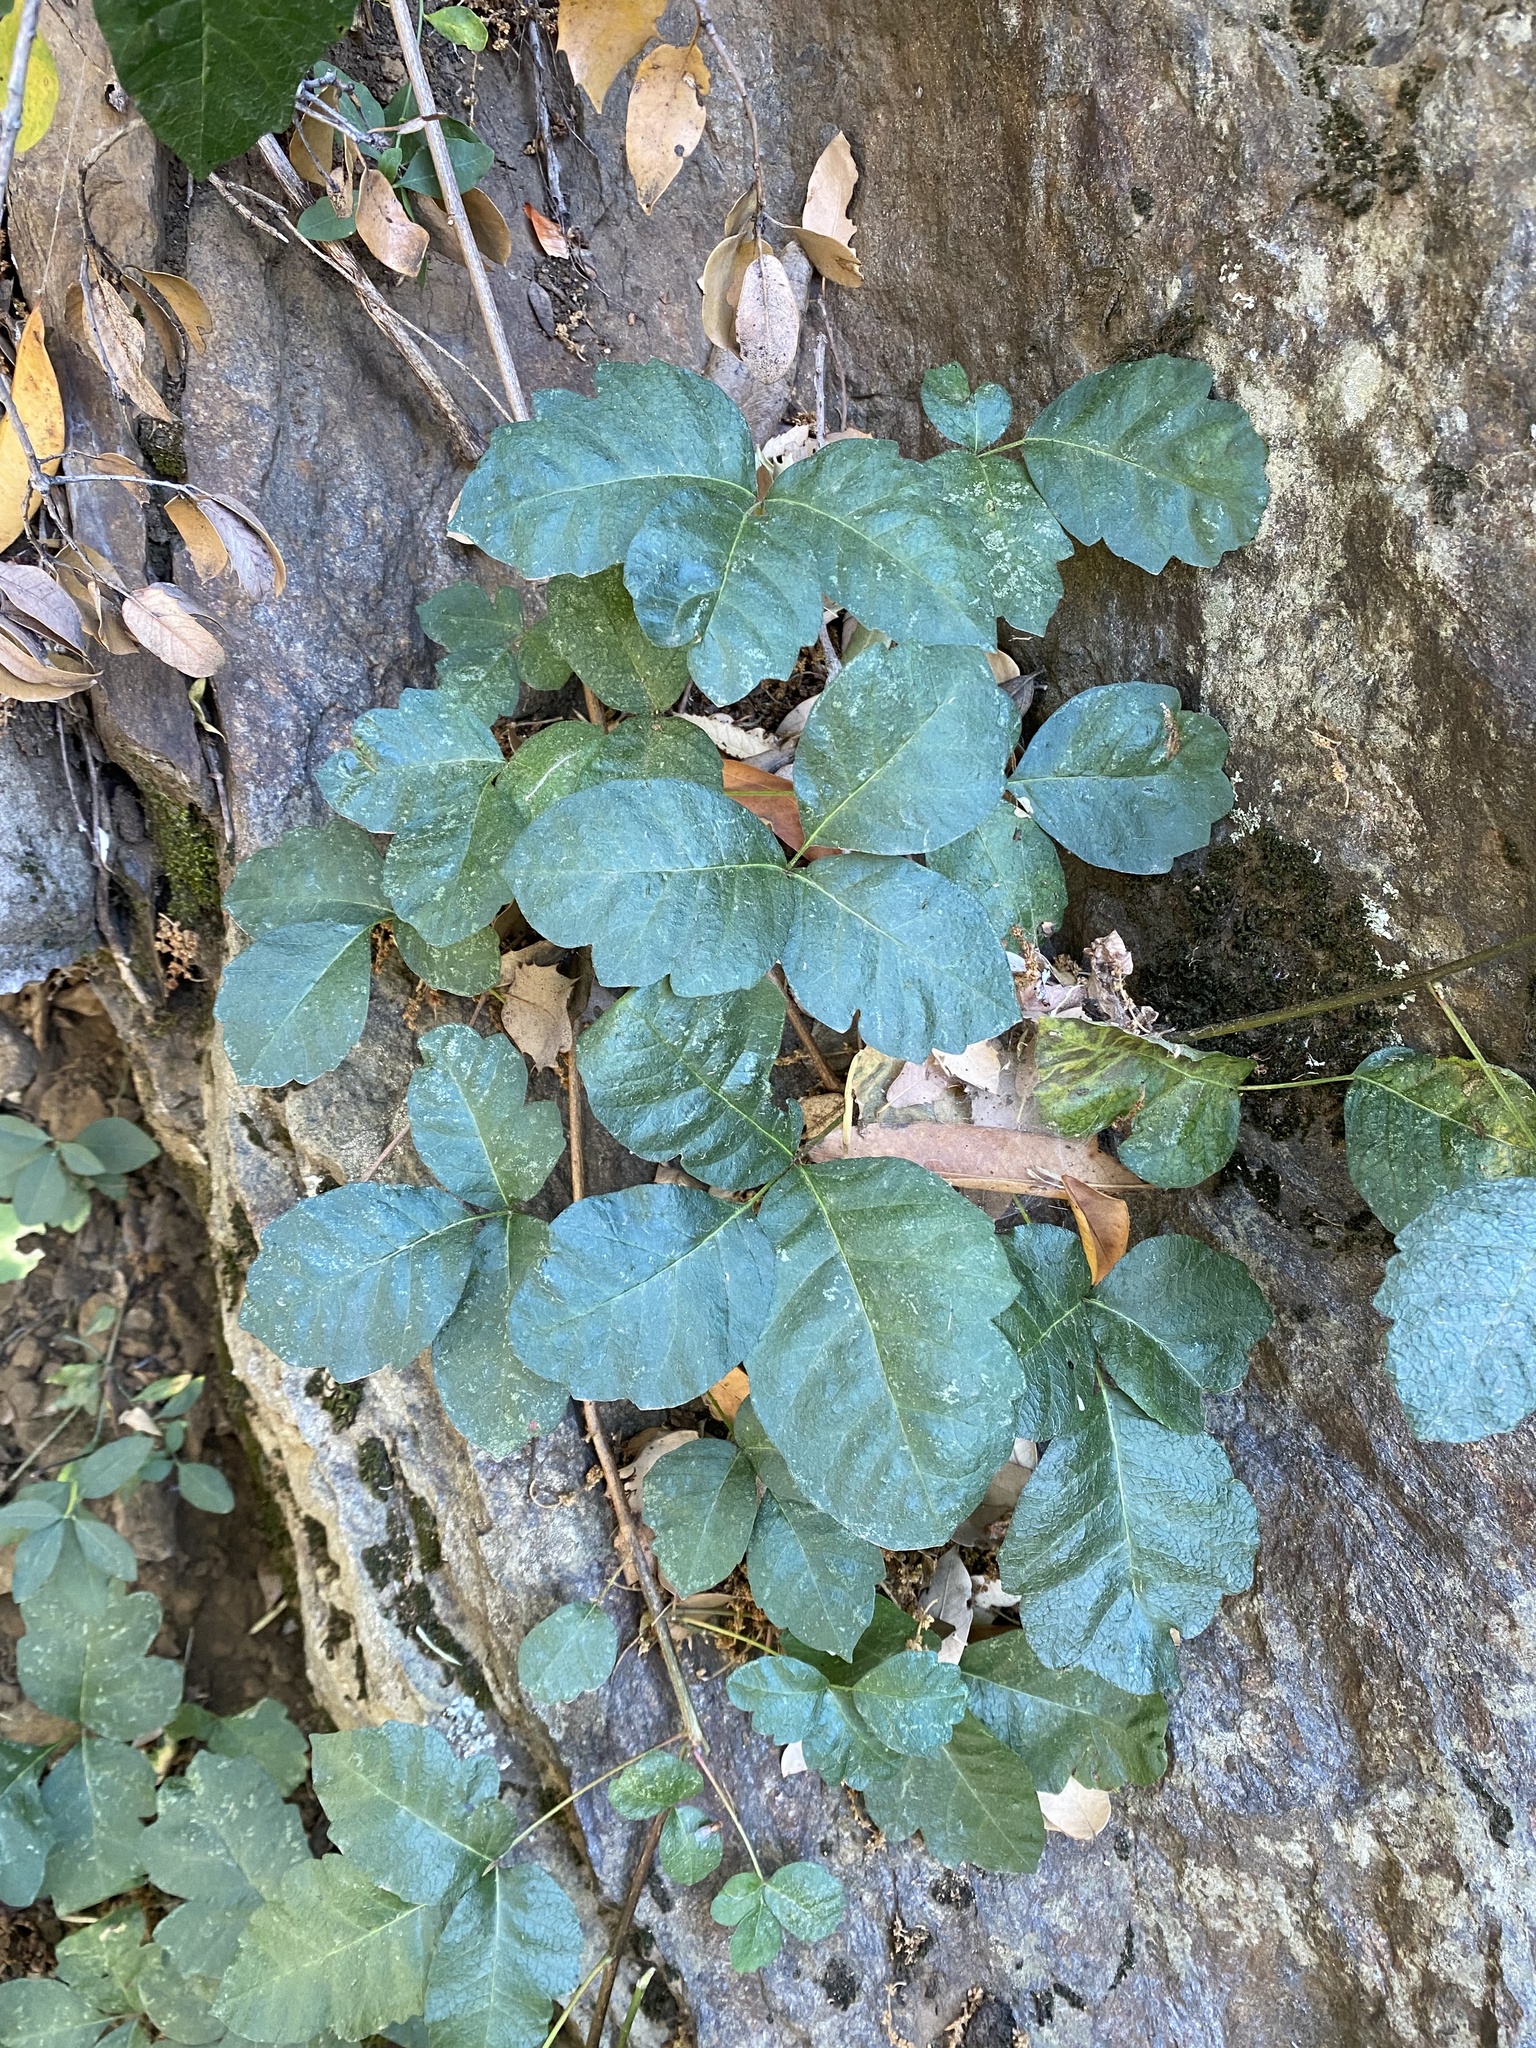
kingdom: Plantae
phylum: Tracheophyta
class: Magnoliopsida
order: Sapindales
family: Anacardiaceae
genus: Toxicodendron
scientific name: Toxicodendron diversilobum
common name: Pacific poison-oak
